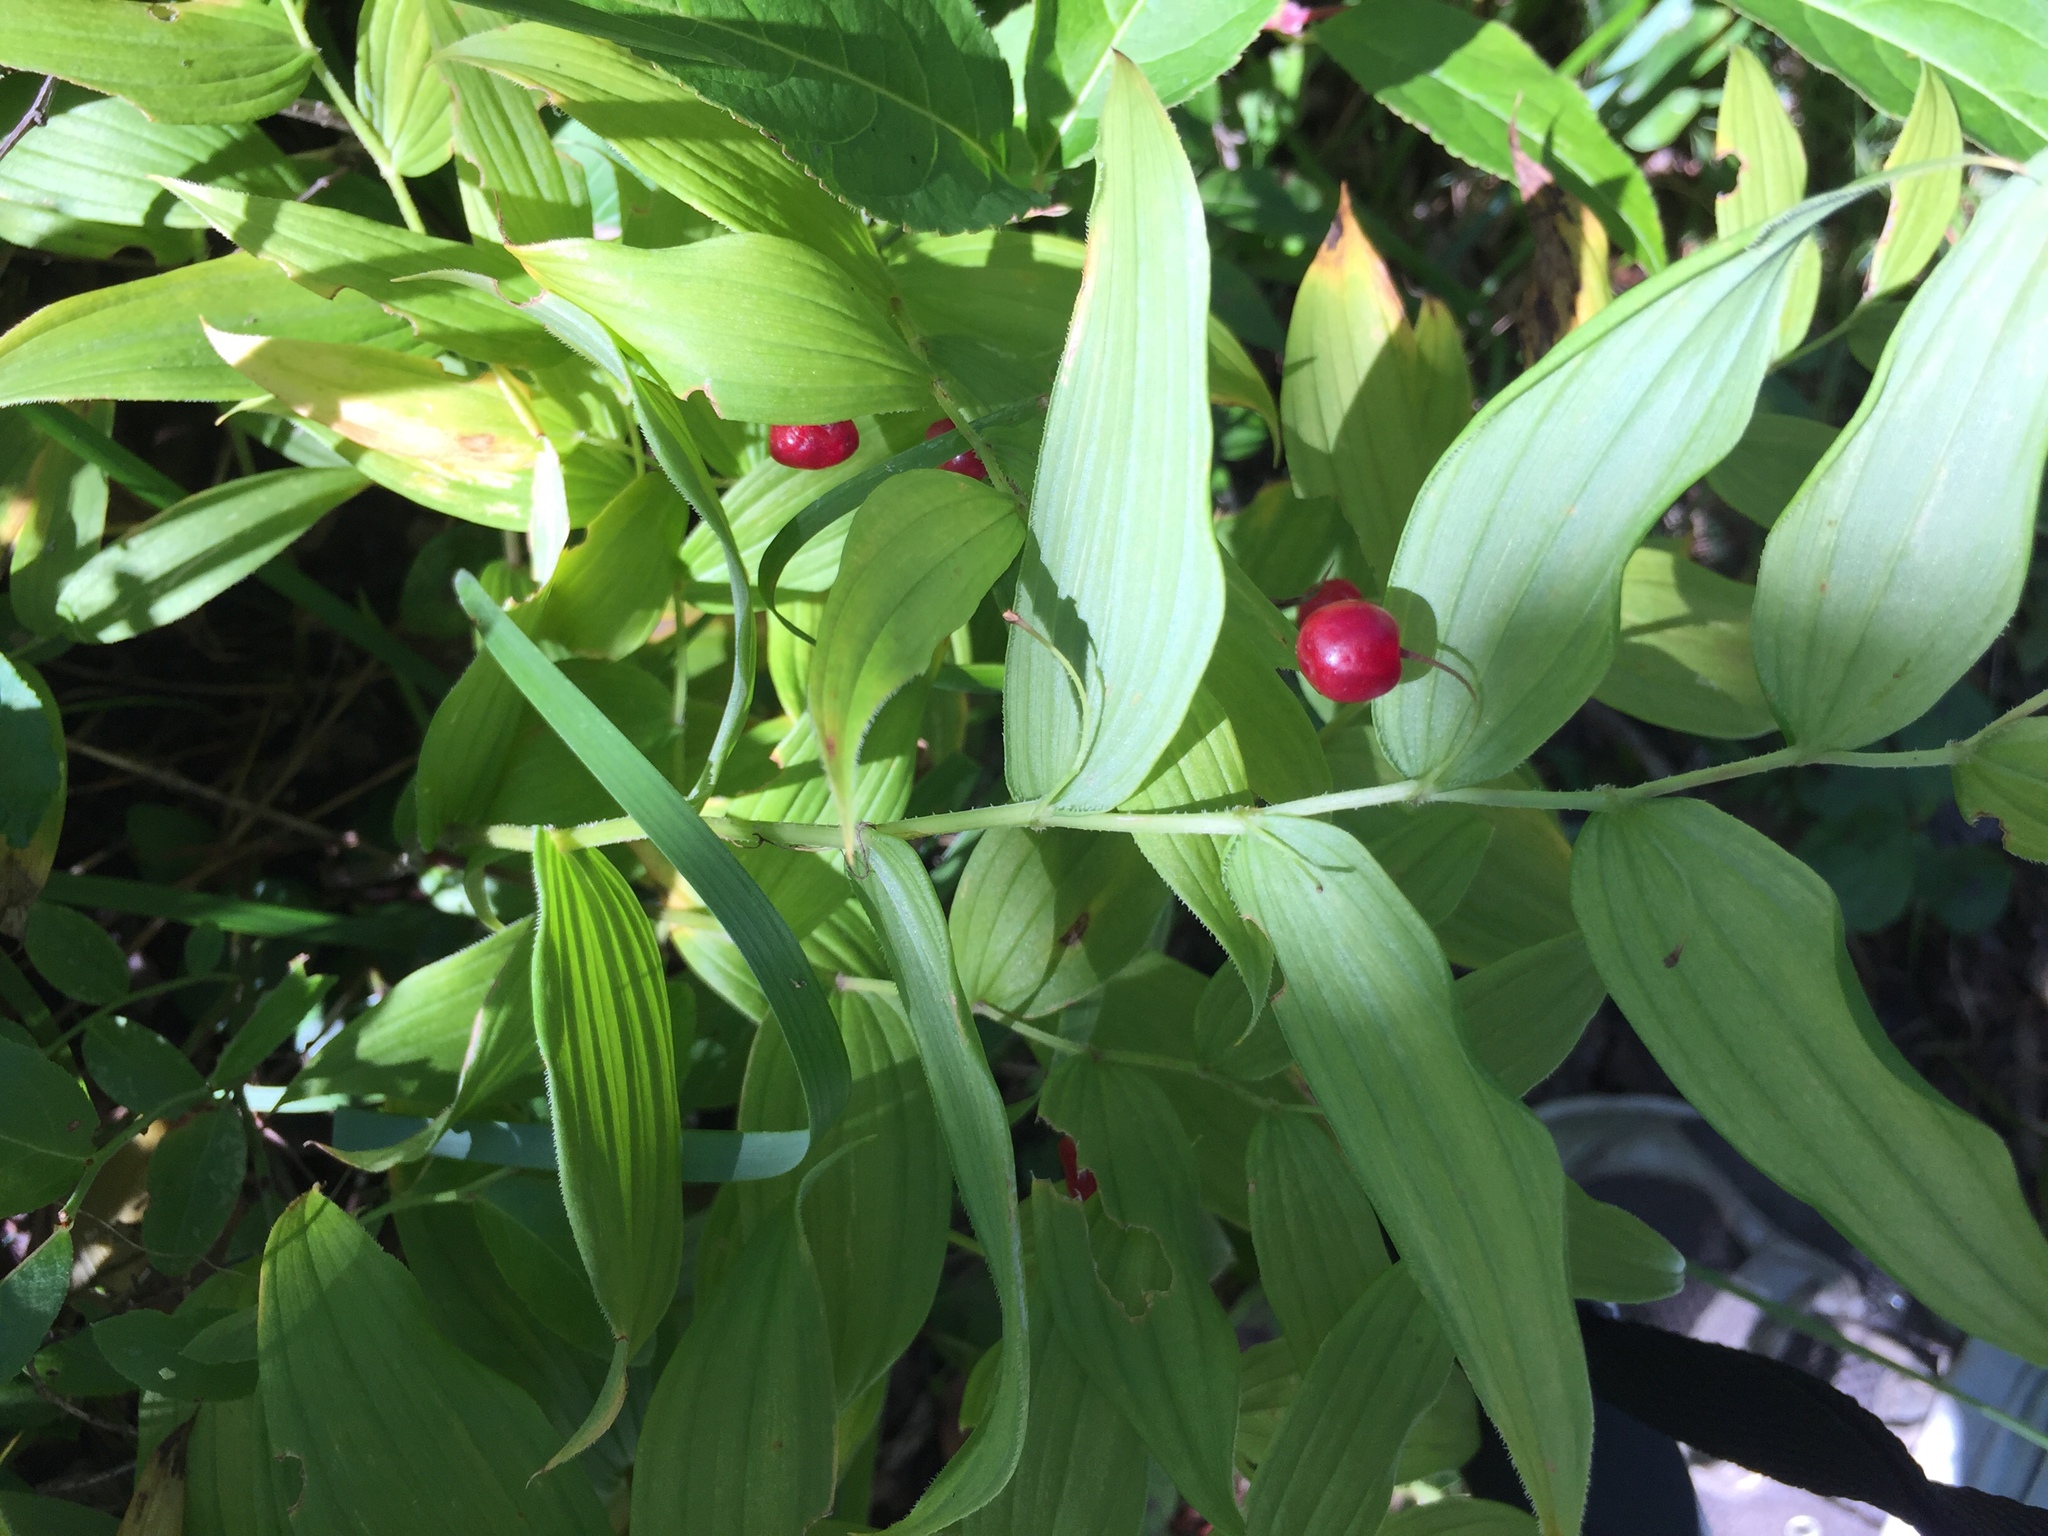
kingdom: Plantae
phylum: Tracheophyta
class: Liliopsida
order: Liliales
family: Liliaceae
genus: Streptopus
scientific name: Streptopus lanceolatus
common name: Rose mandarin
